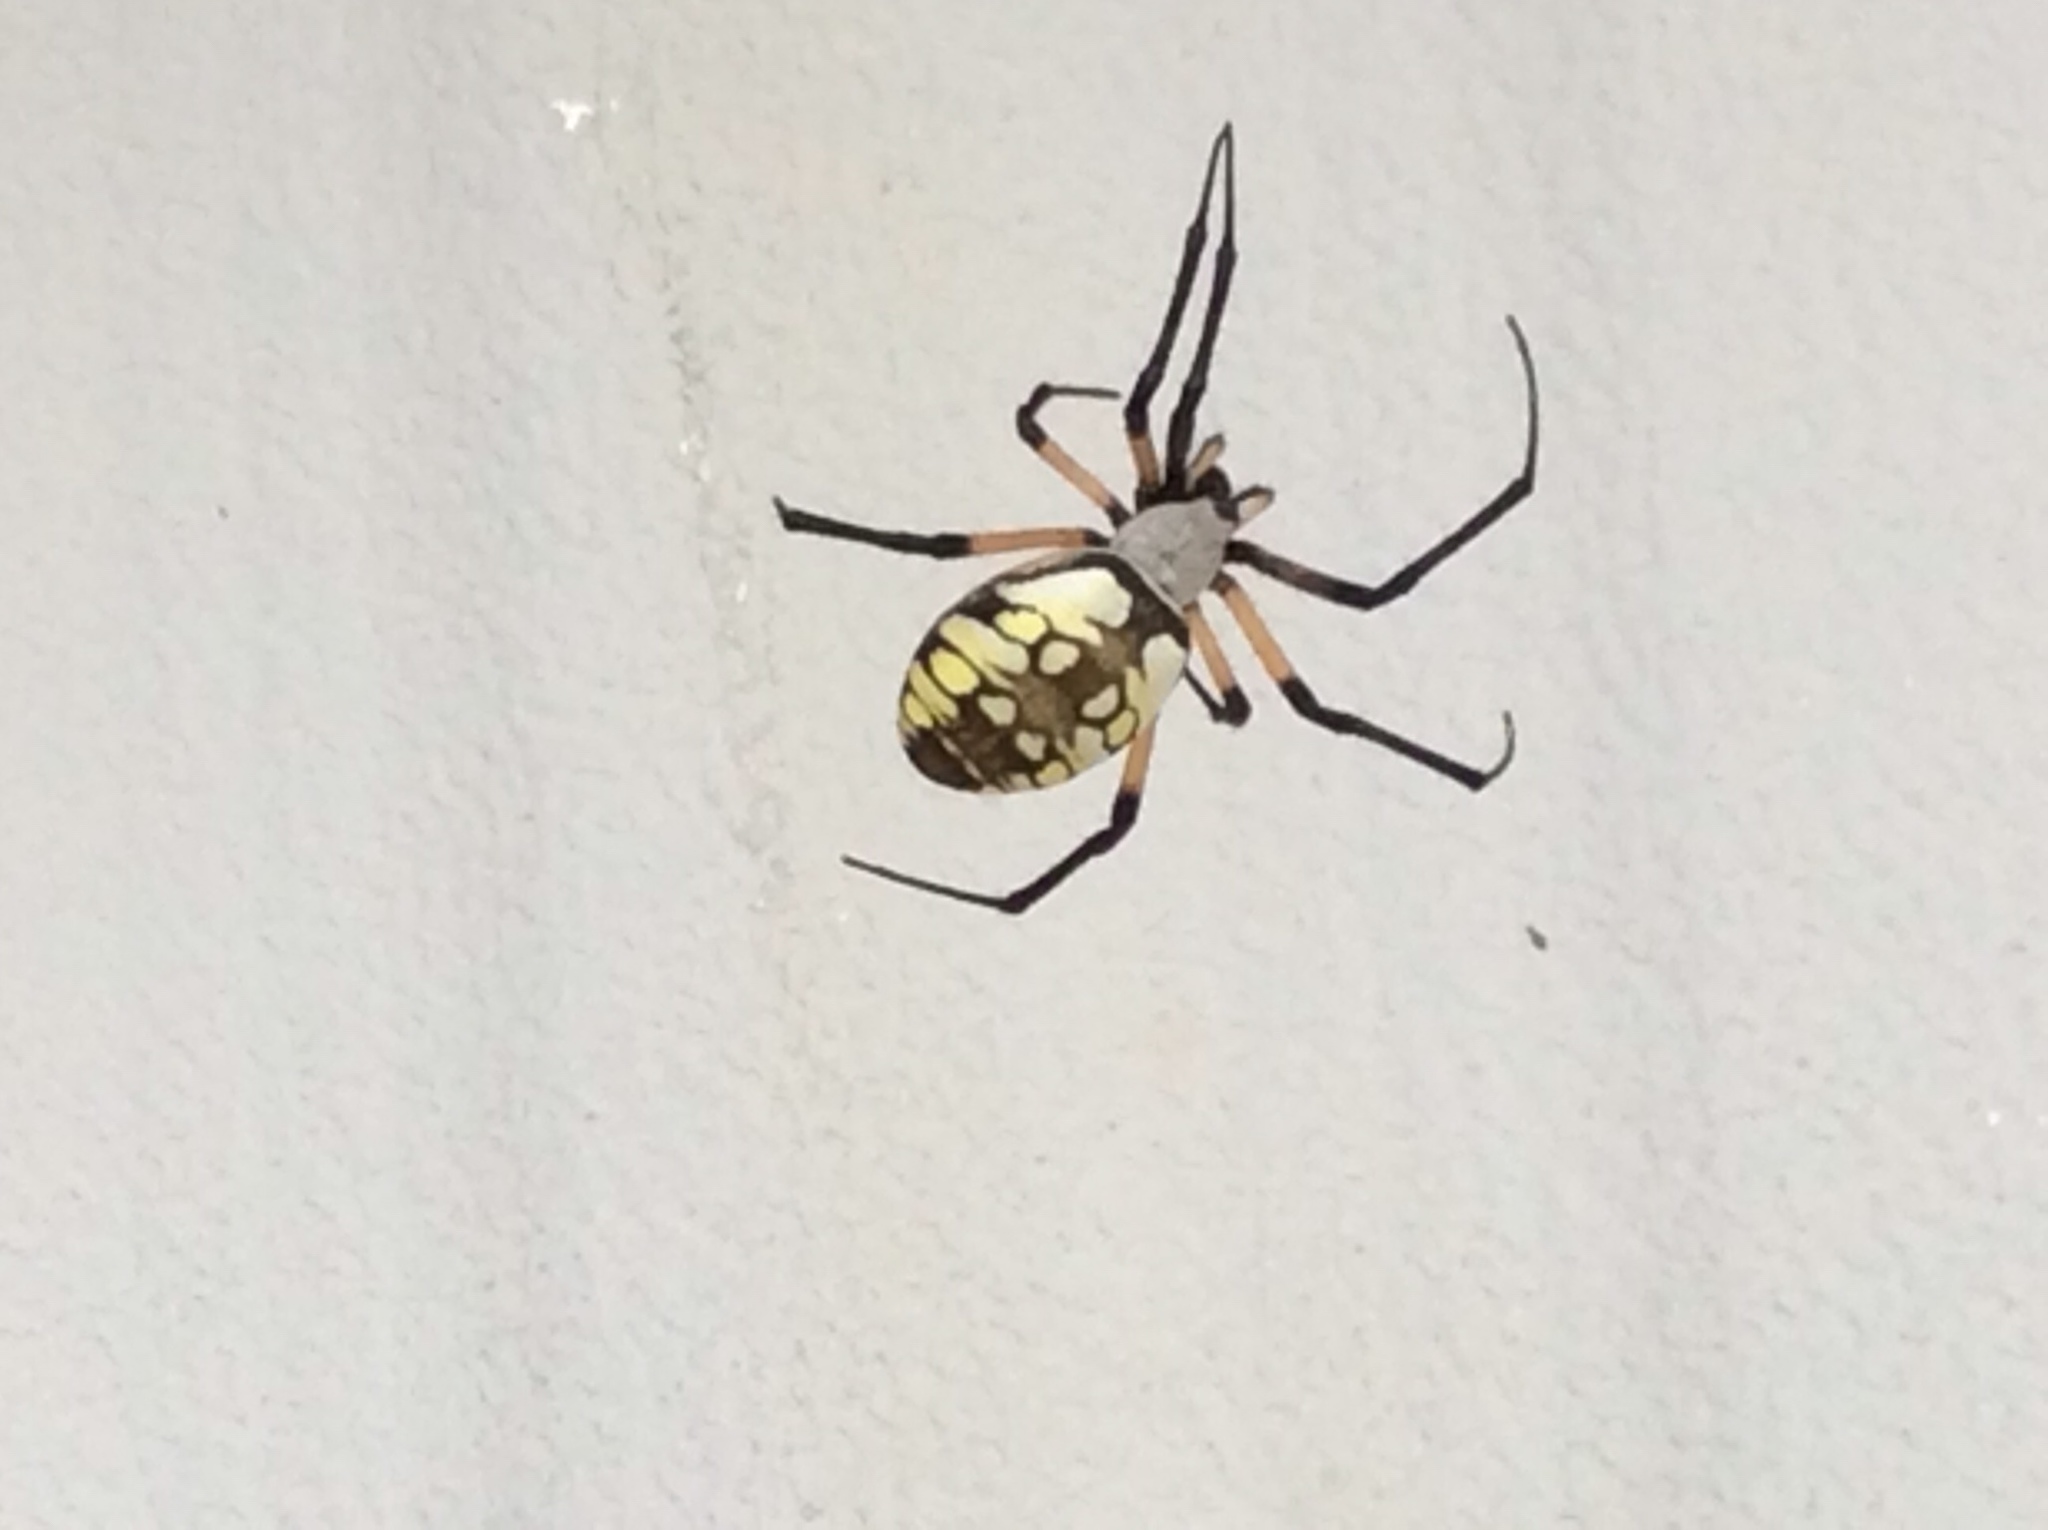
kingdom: Animalia
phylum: Arthropoda
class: Arachnida
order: Araneae
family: Araneidae
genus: Argiope
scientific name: Argiope aurantia
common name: Orb weavers
